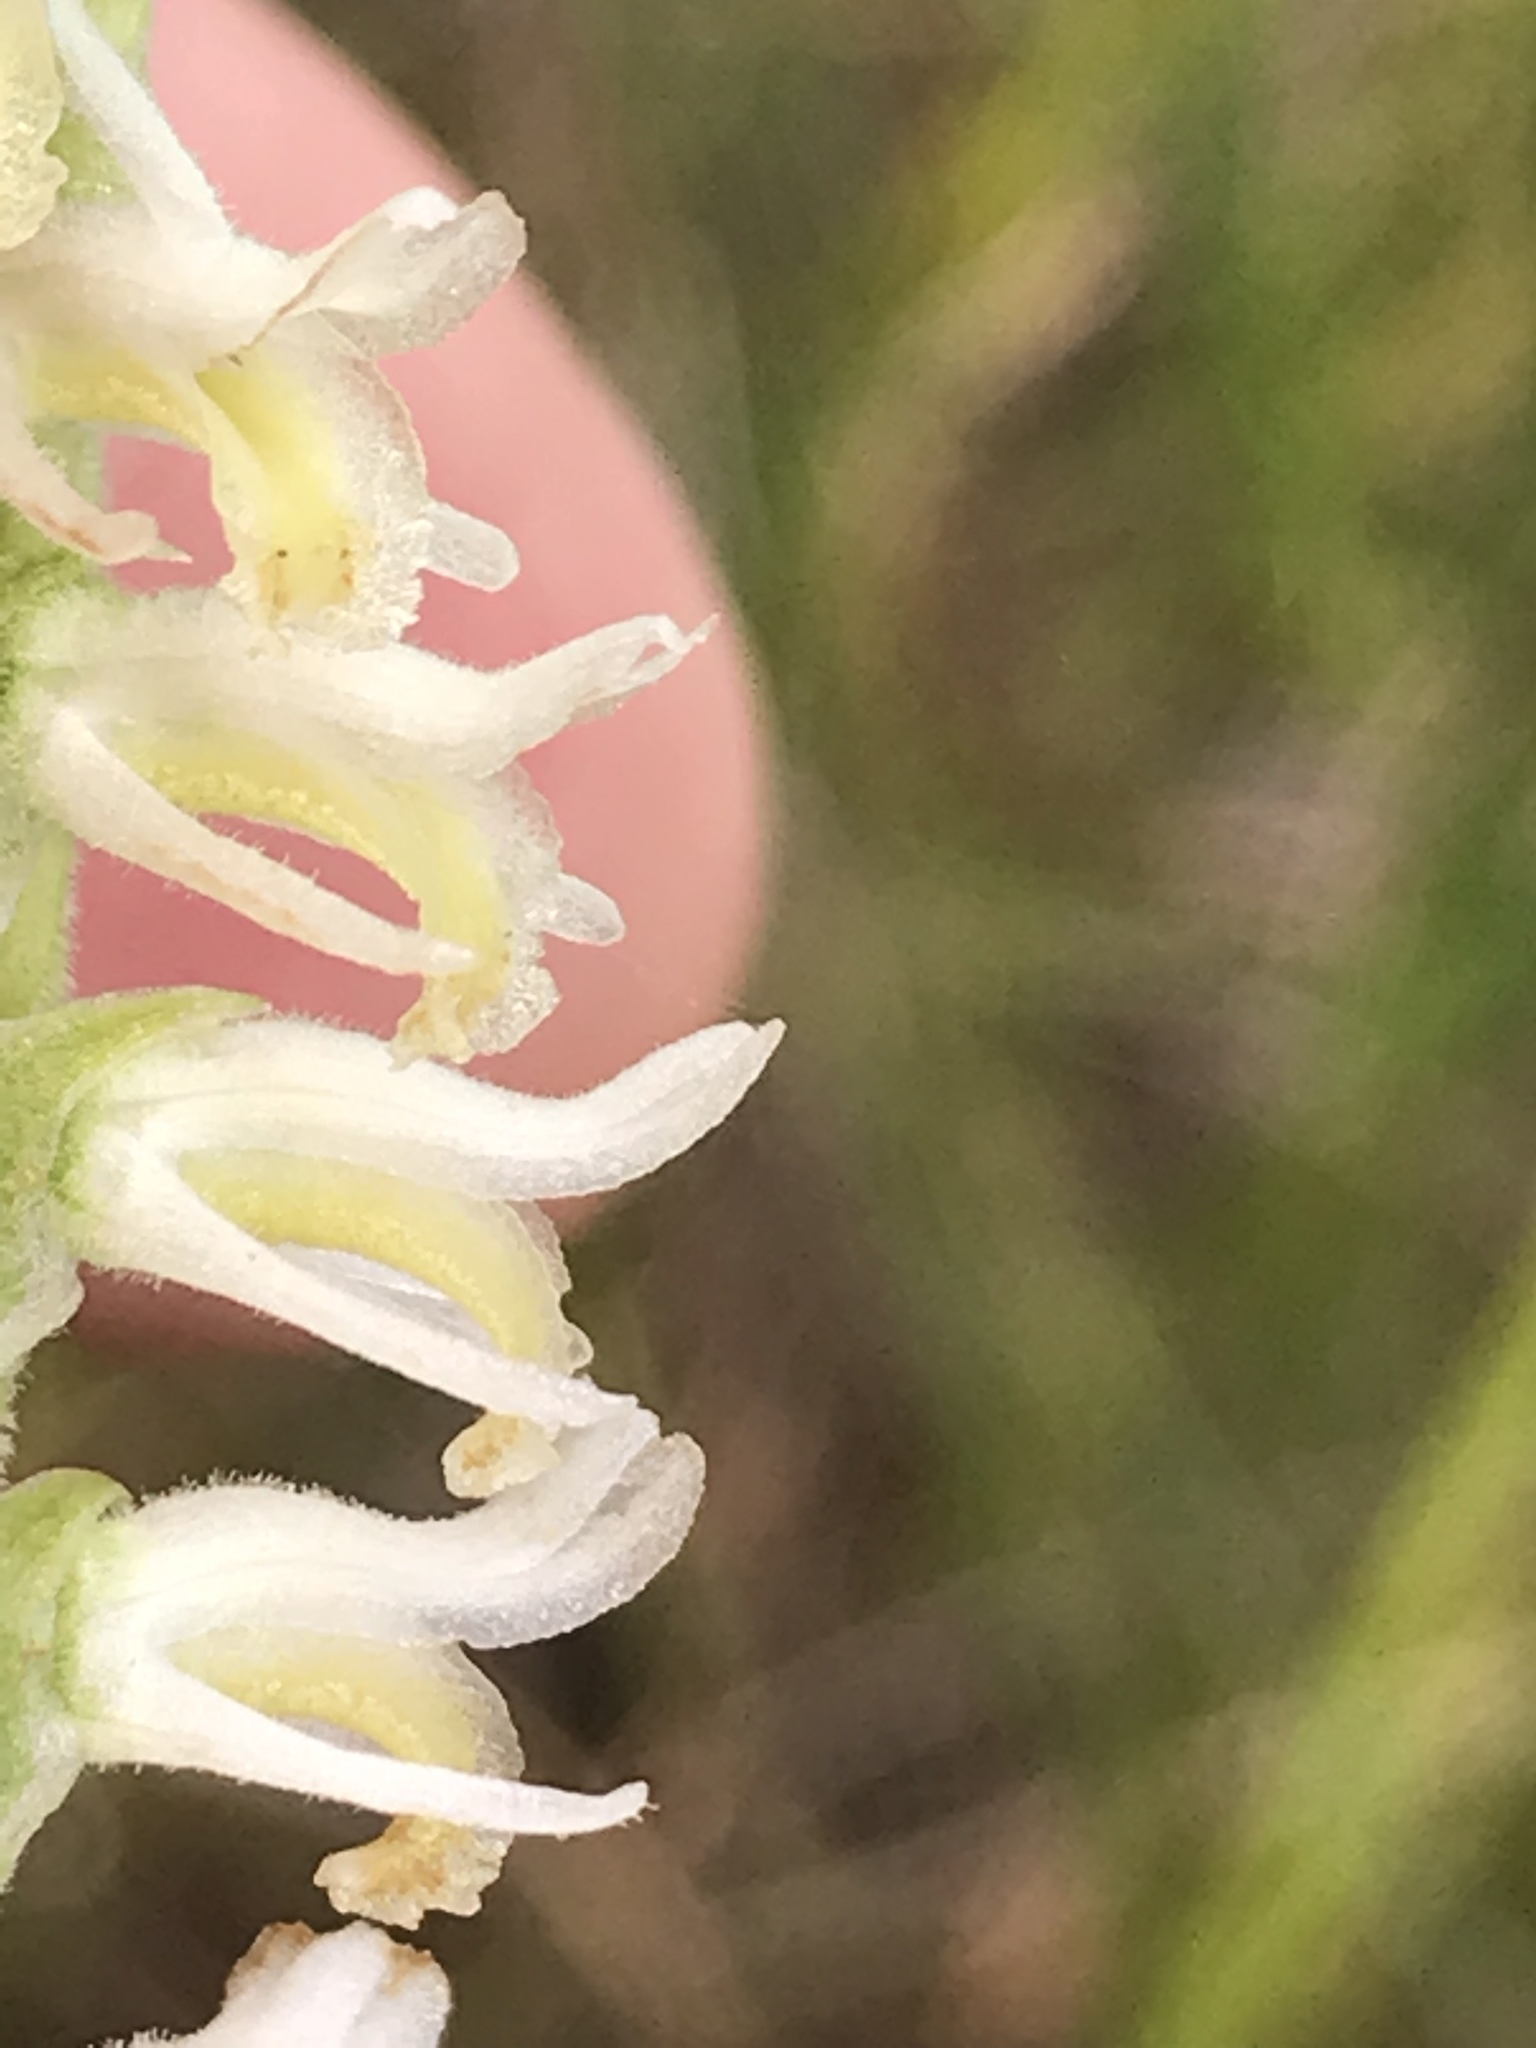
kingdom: Plantae
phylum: Tracheophyta
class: Liliopsida
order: Asparagales
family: Orchidaceae
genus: Spiranthes
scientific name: Spiranthes vernalis
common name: Spring ladies'-tresses
